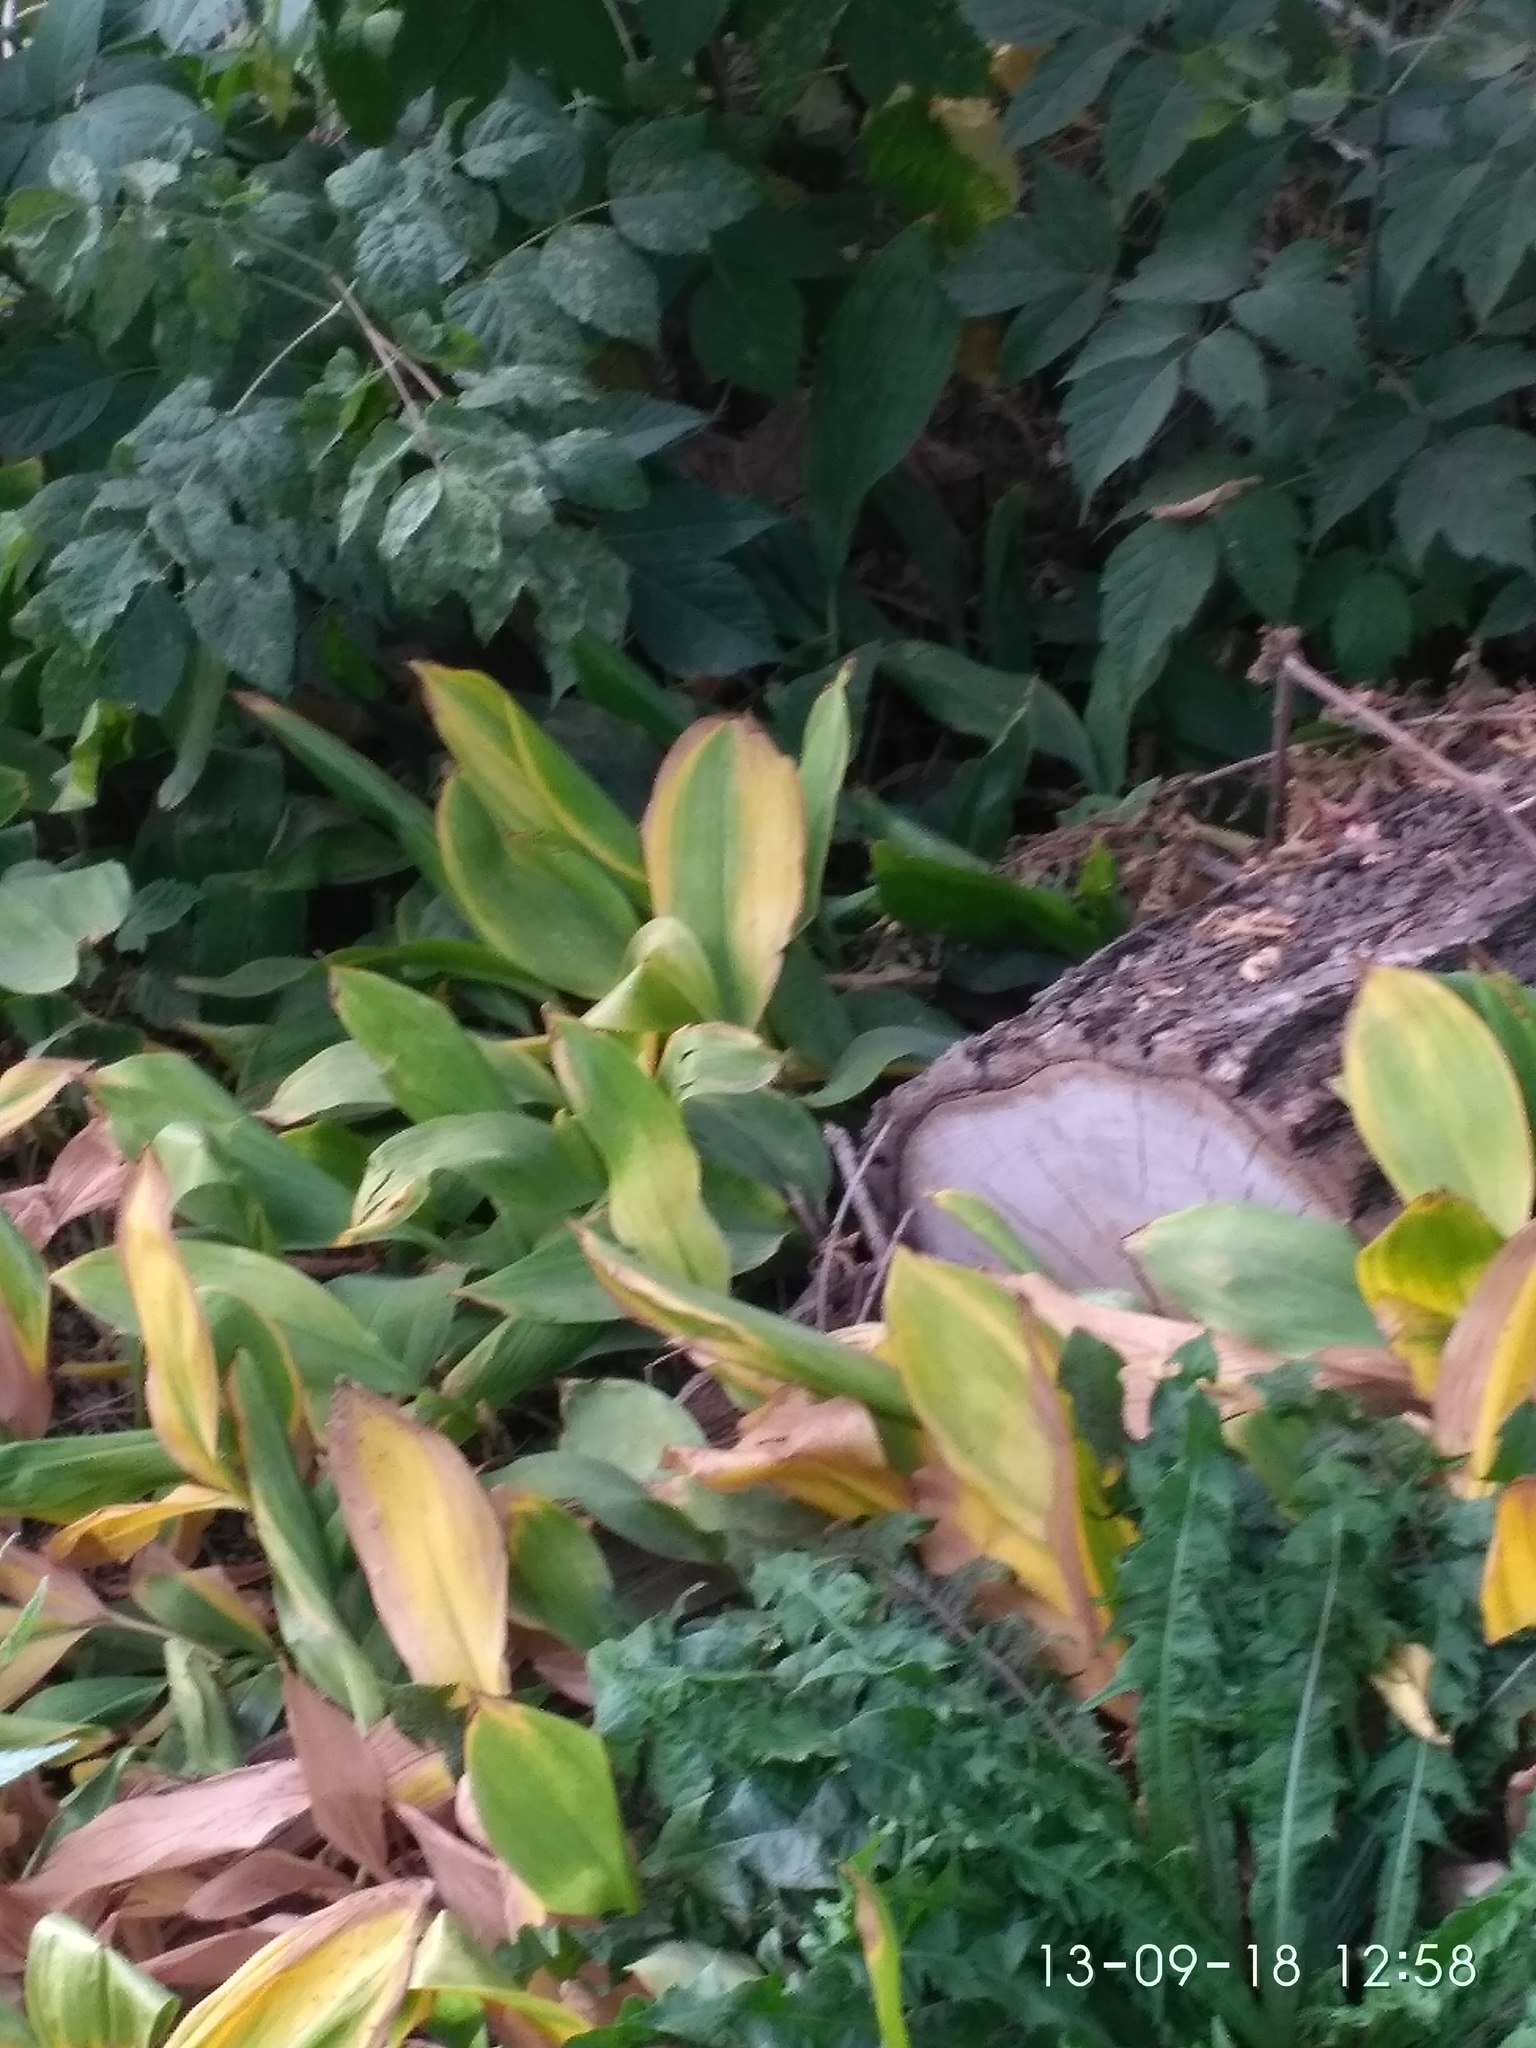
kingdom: Plantae
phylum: Tracheophyta
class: Liliopsida
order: Asparagales
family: Asparagaceae
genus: Convallaria
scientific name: Convallaria majalis
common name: Lily-of-the-valley
